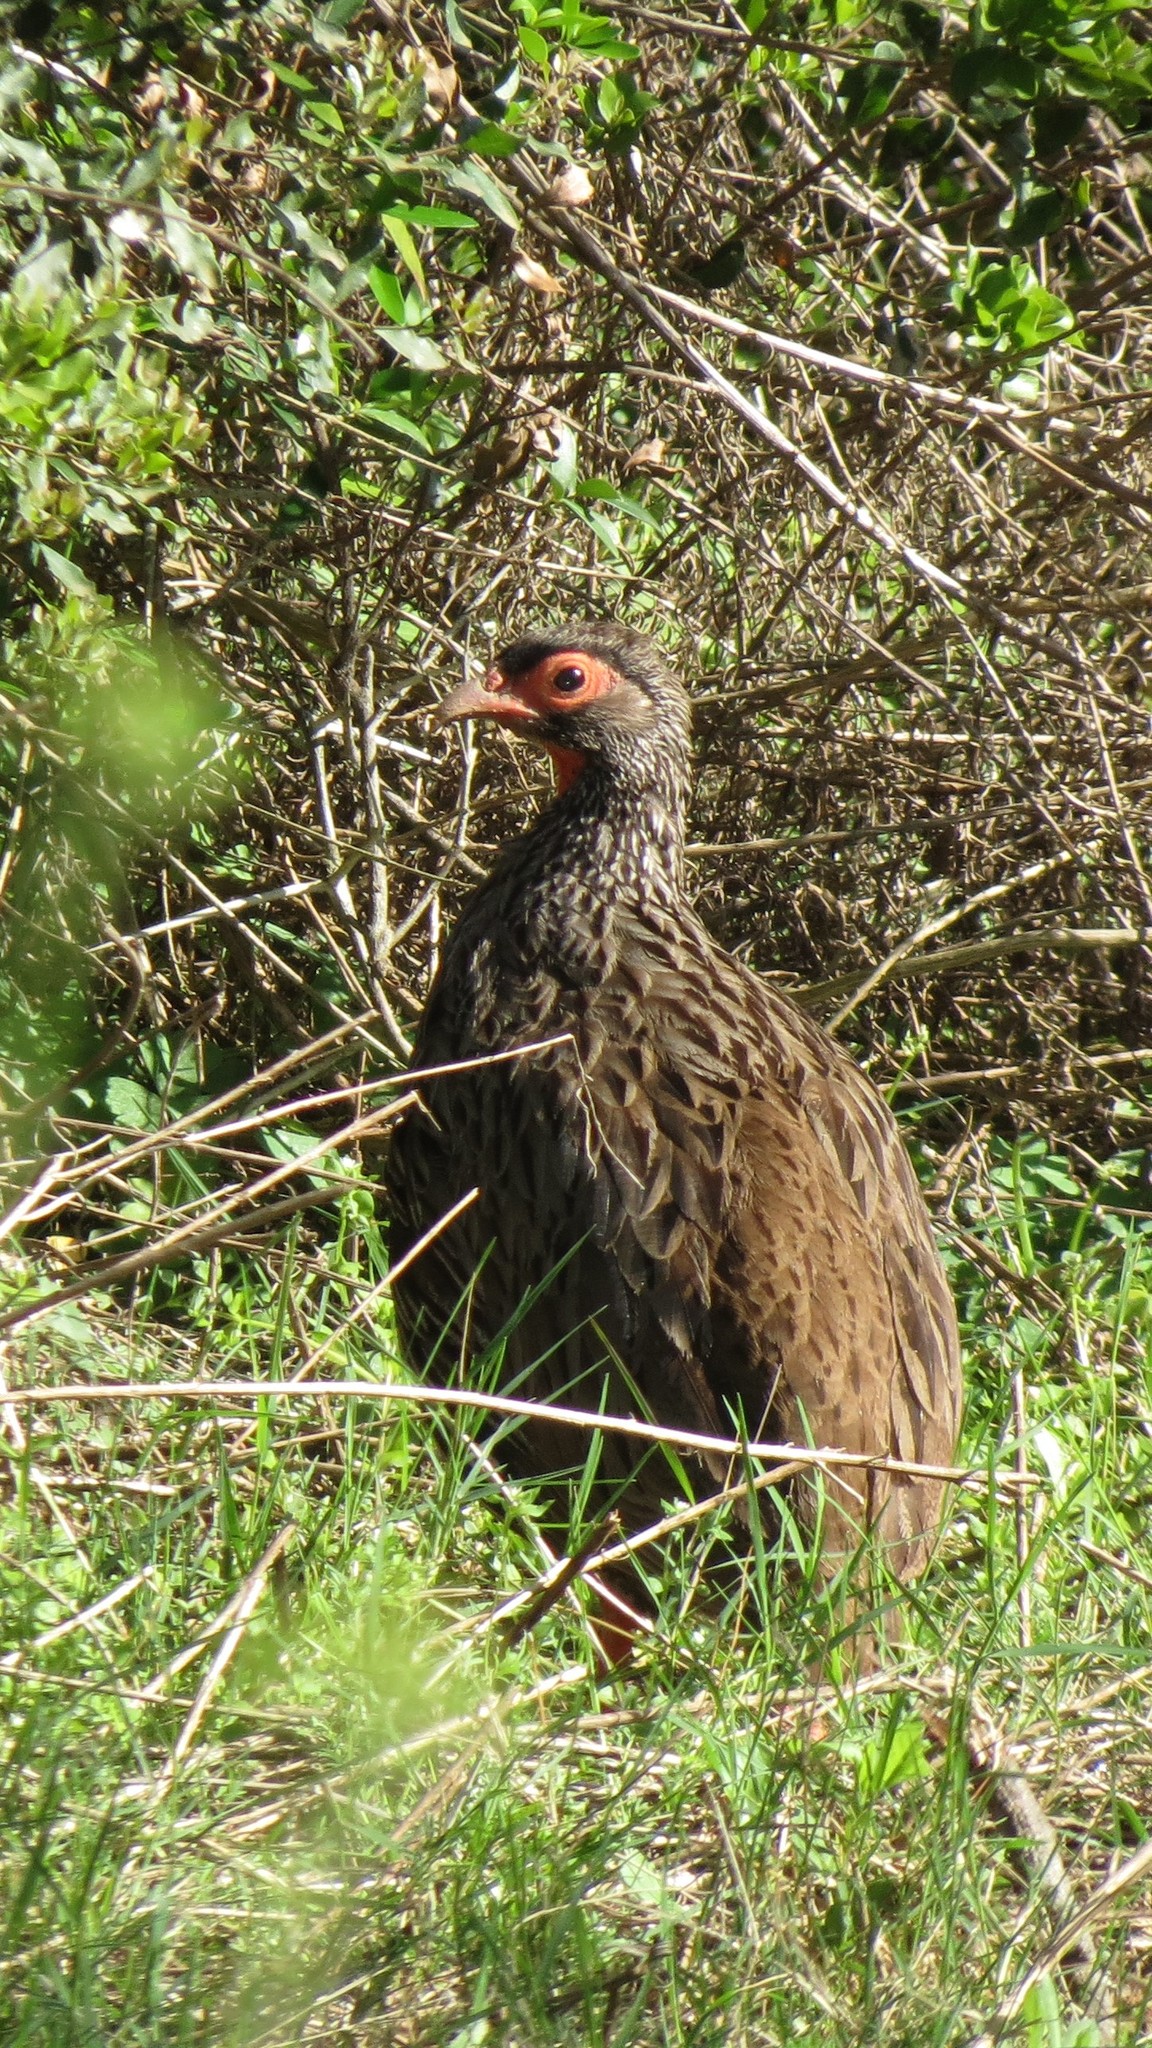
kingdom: Animalia
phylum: Chordata
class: Aves
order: Galliformes
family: Phasianidae
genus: Pternistis
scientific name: Pternistis afer
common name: Red-necked spurfowl
